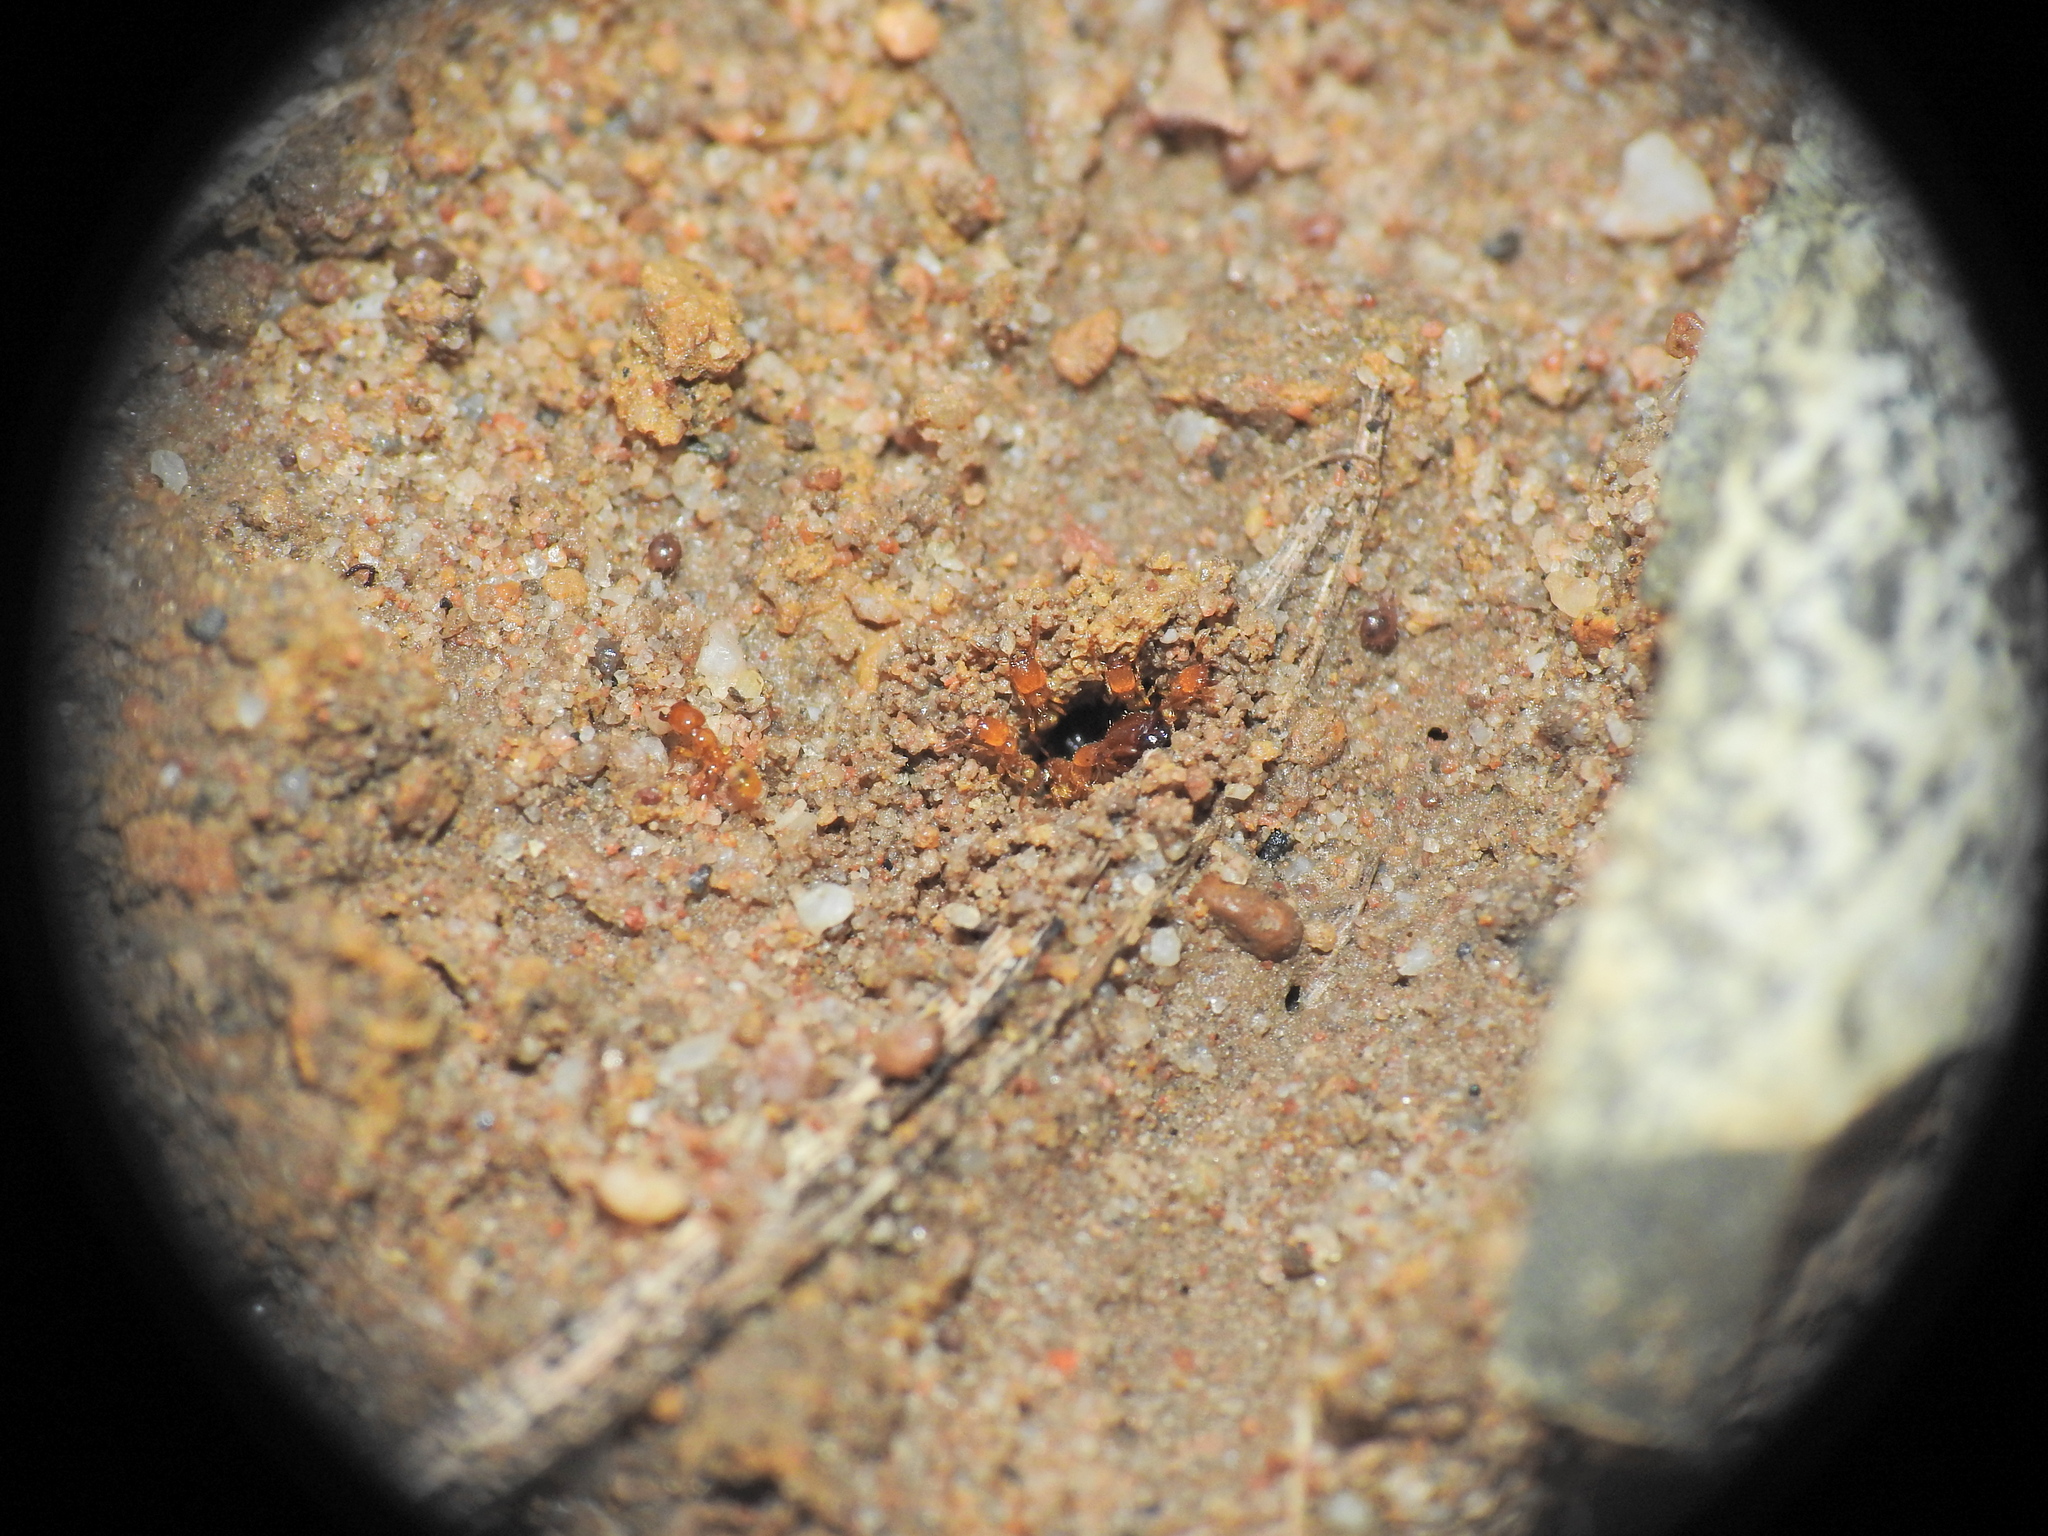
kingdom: Animalia
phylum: Arthropoda
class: Insecta
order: Hymenoptera
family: Formicidae
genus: Pheidole
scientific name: Pheidole
